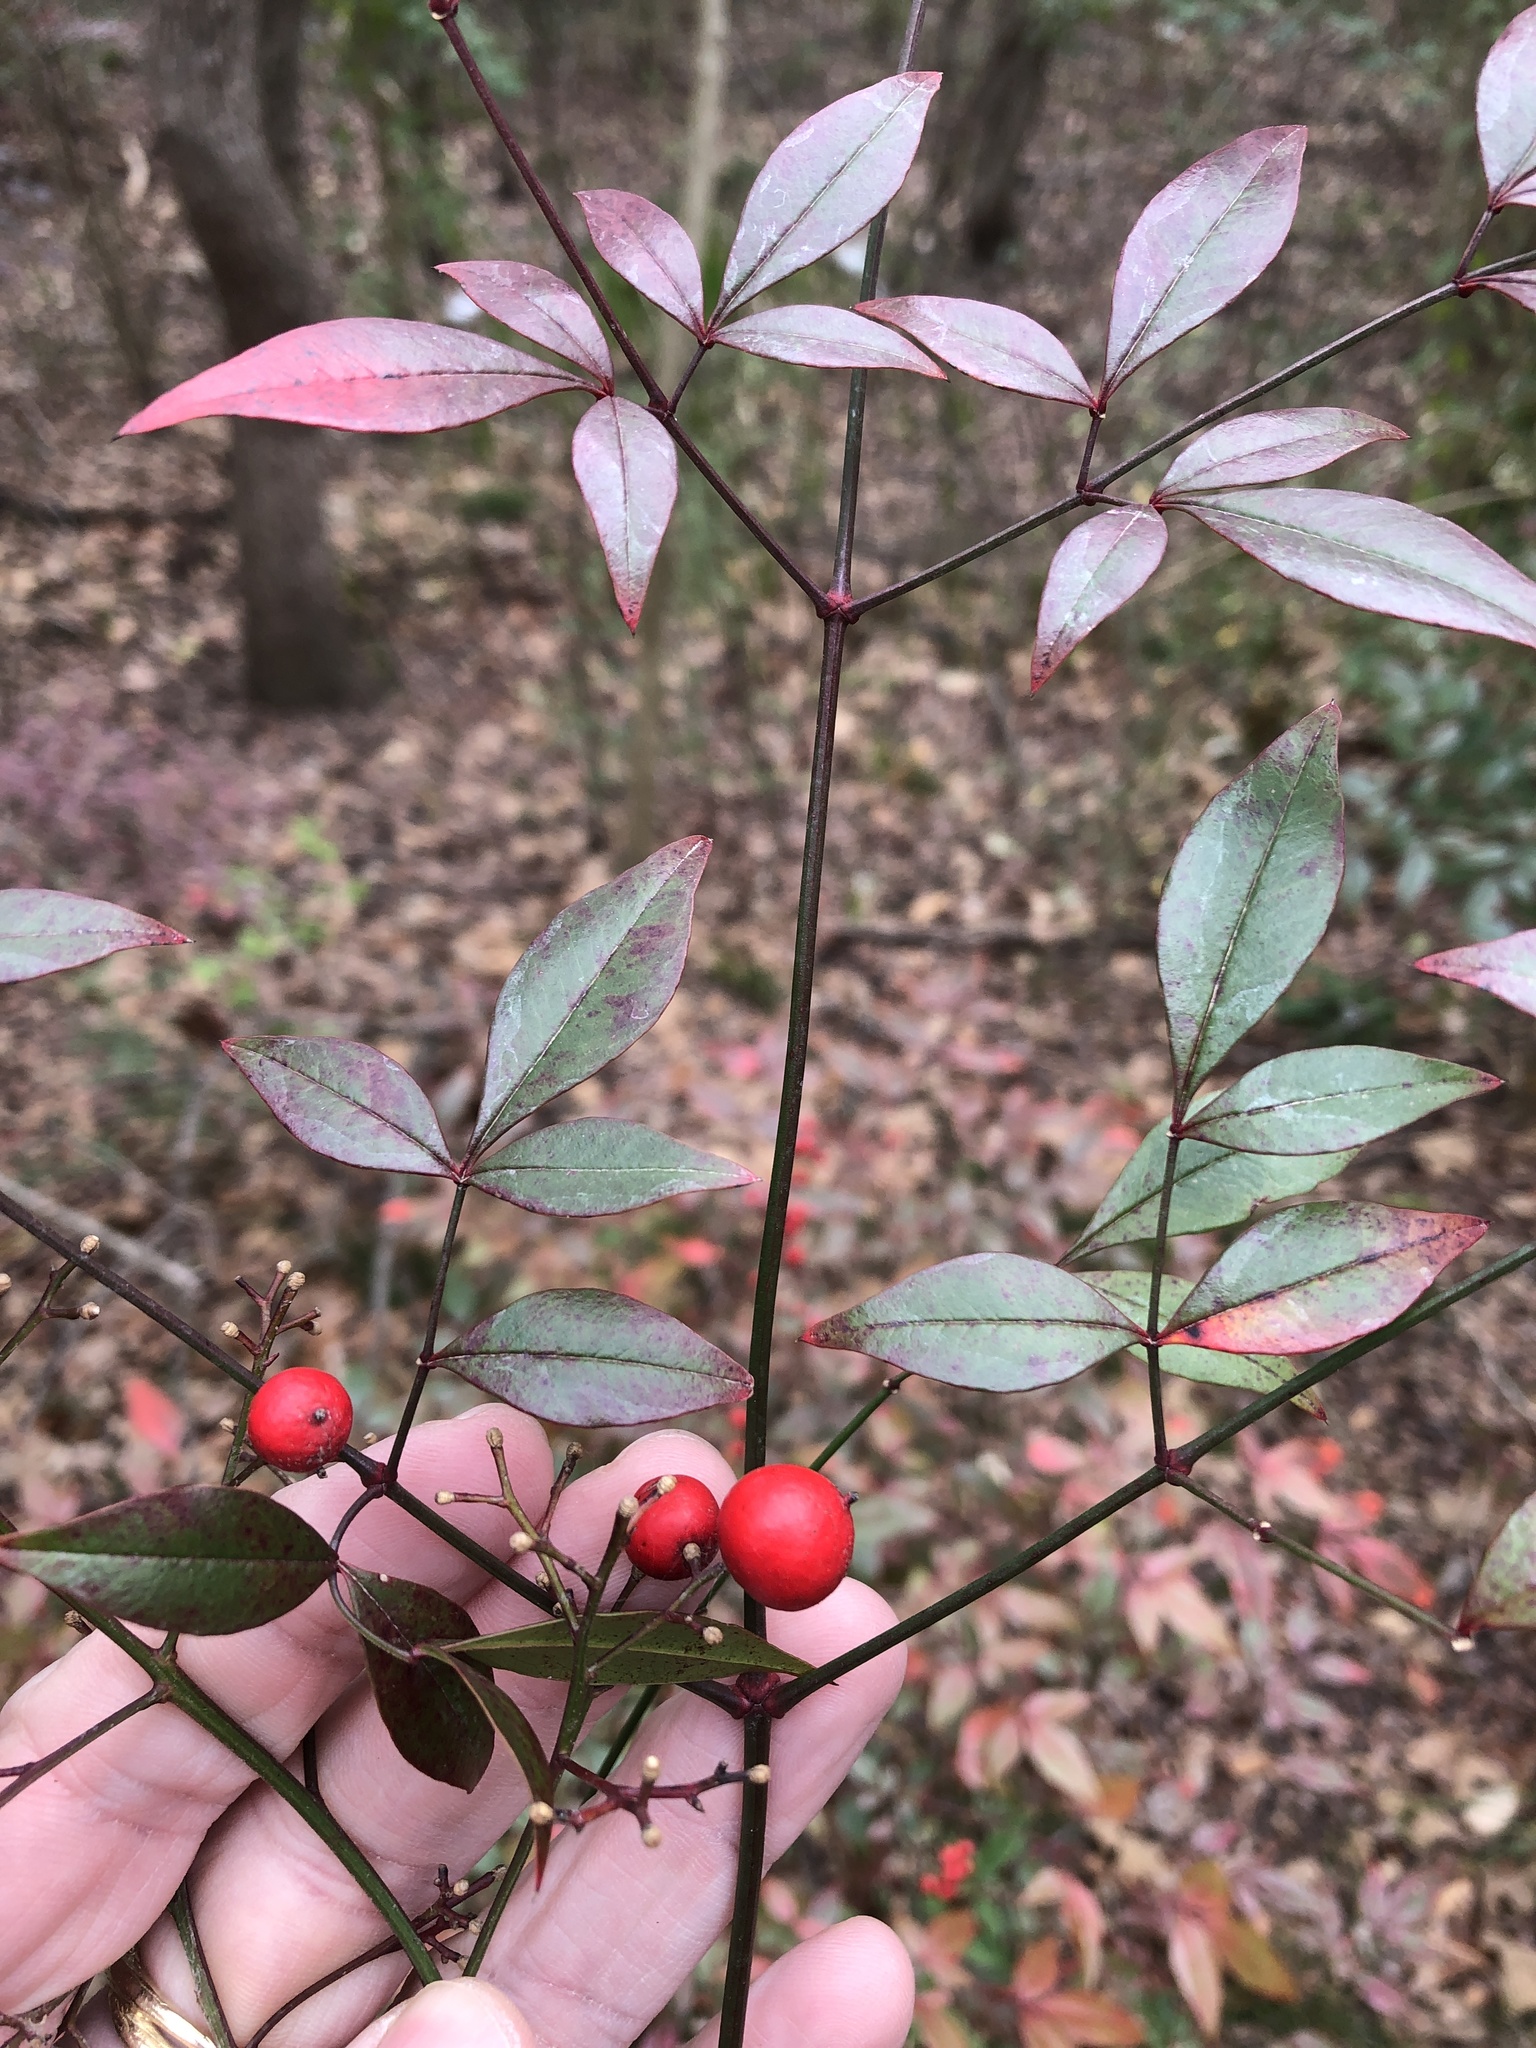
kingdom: Plantae
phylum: Tracheophyta
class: Magnoliopsida
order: Ranunculales
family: Berberidaceae
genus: Nandina
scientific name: Nandina domestica
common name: Sacred bamboo
